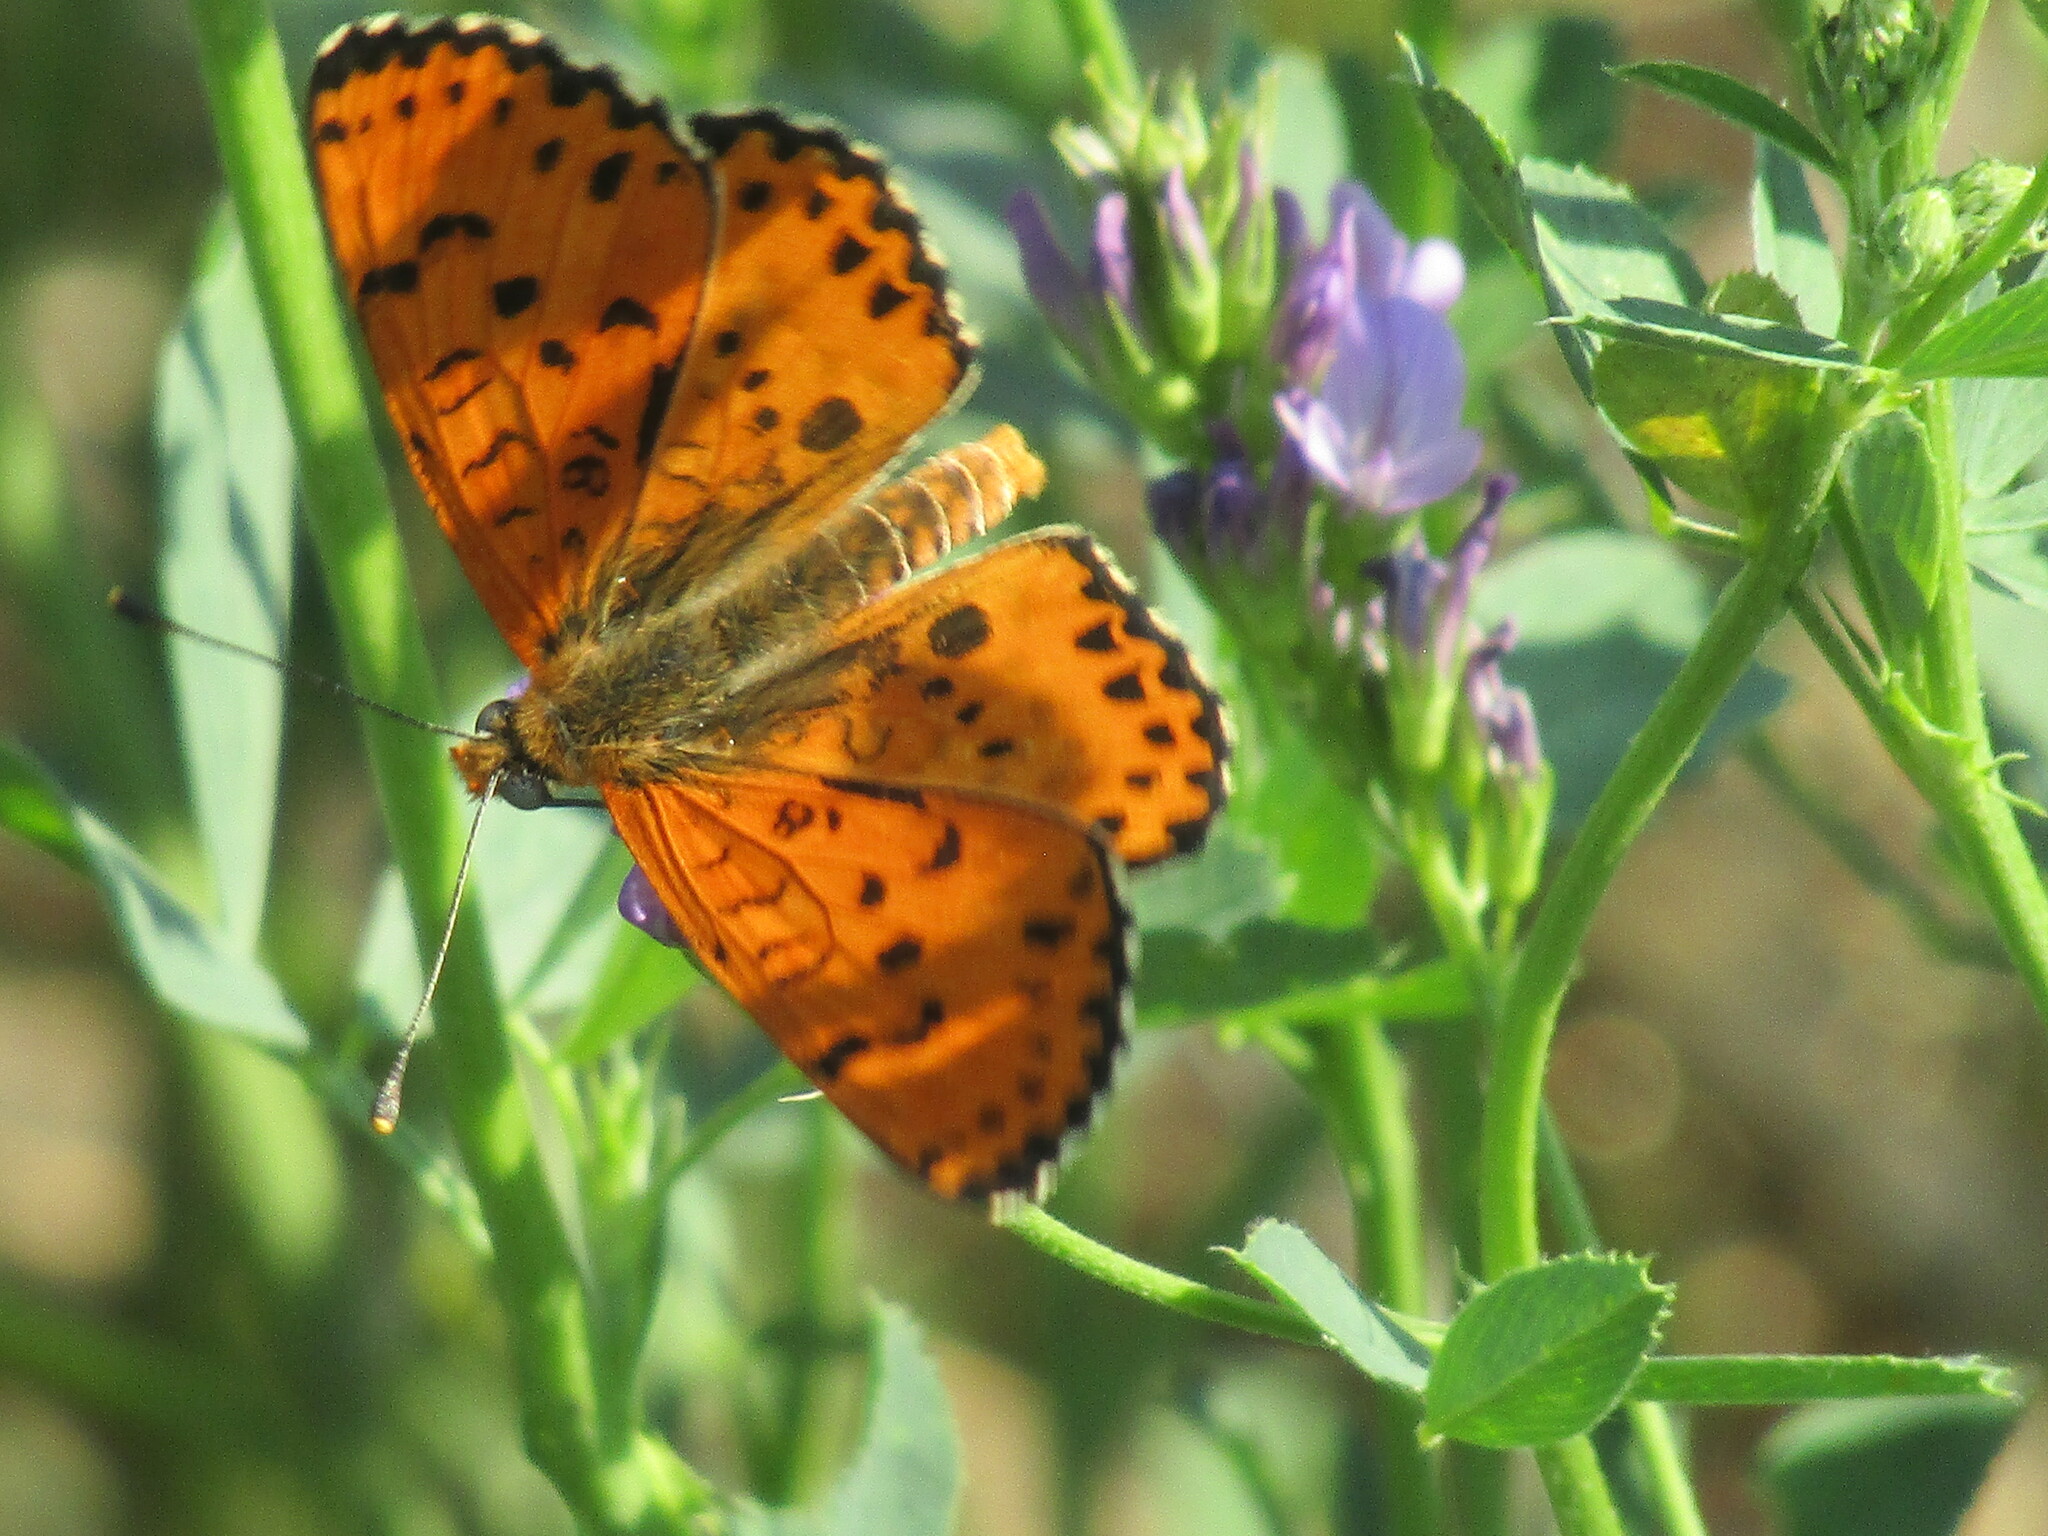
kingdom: Animalia
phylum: Arthropoda
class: Insecta
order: Lepidoptera
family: Nymphalidae
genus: Melitaea
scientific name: Melitaea didyma
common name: Spotted fritillary
